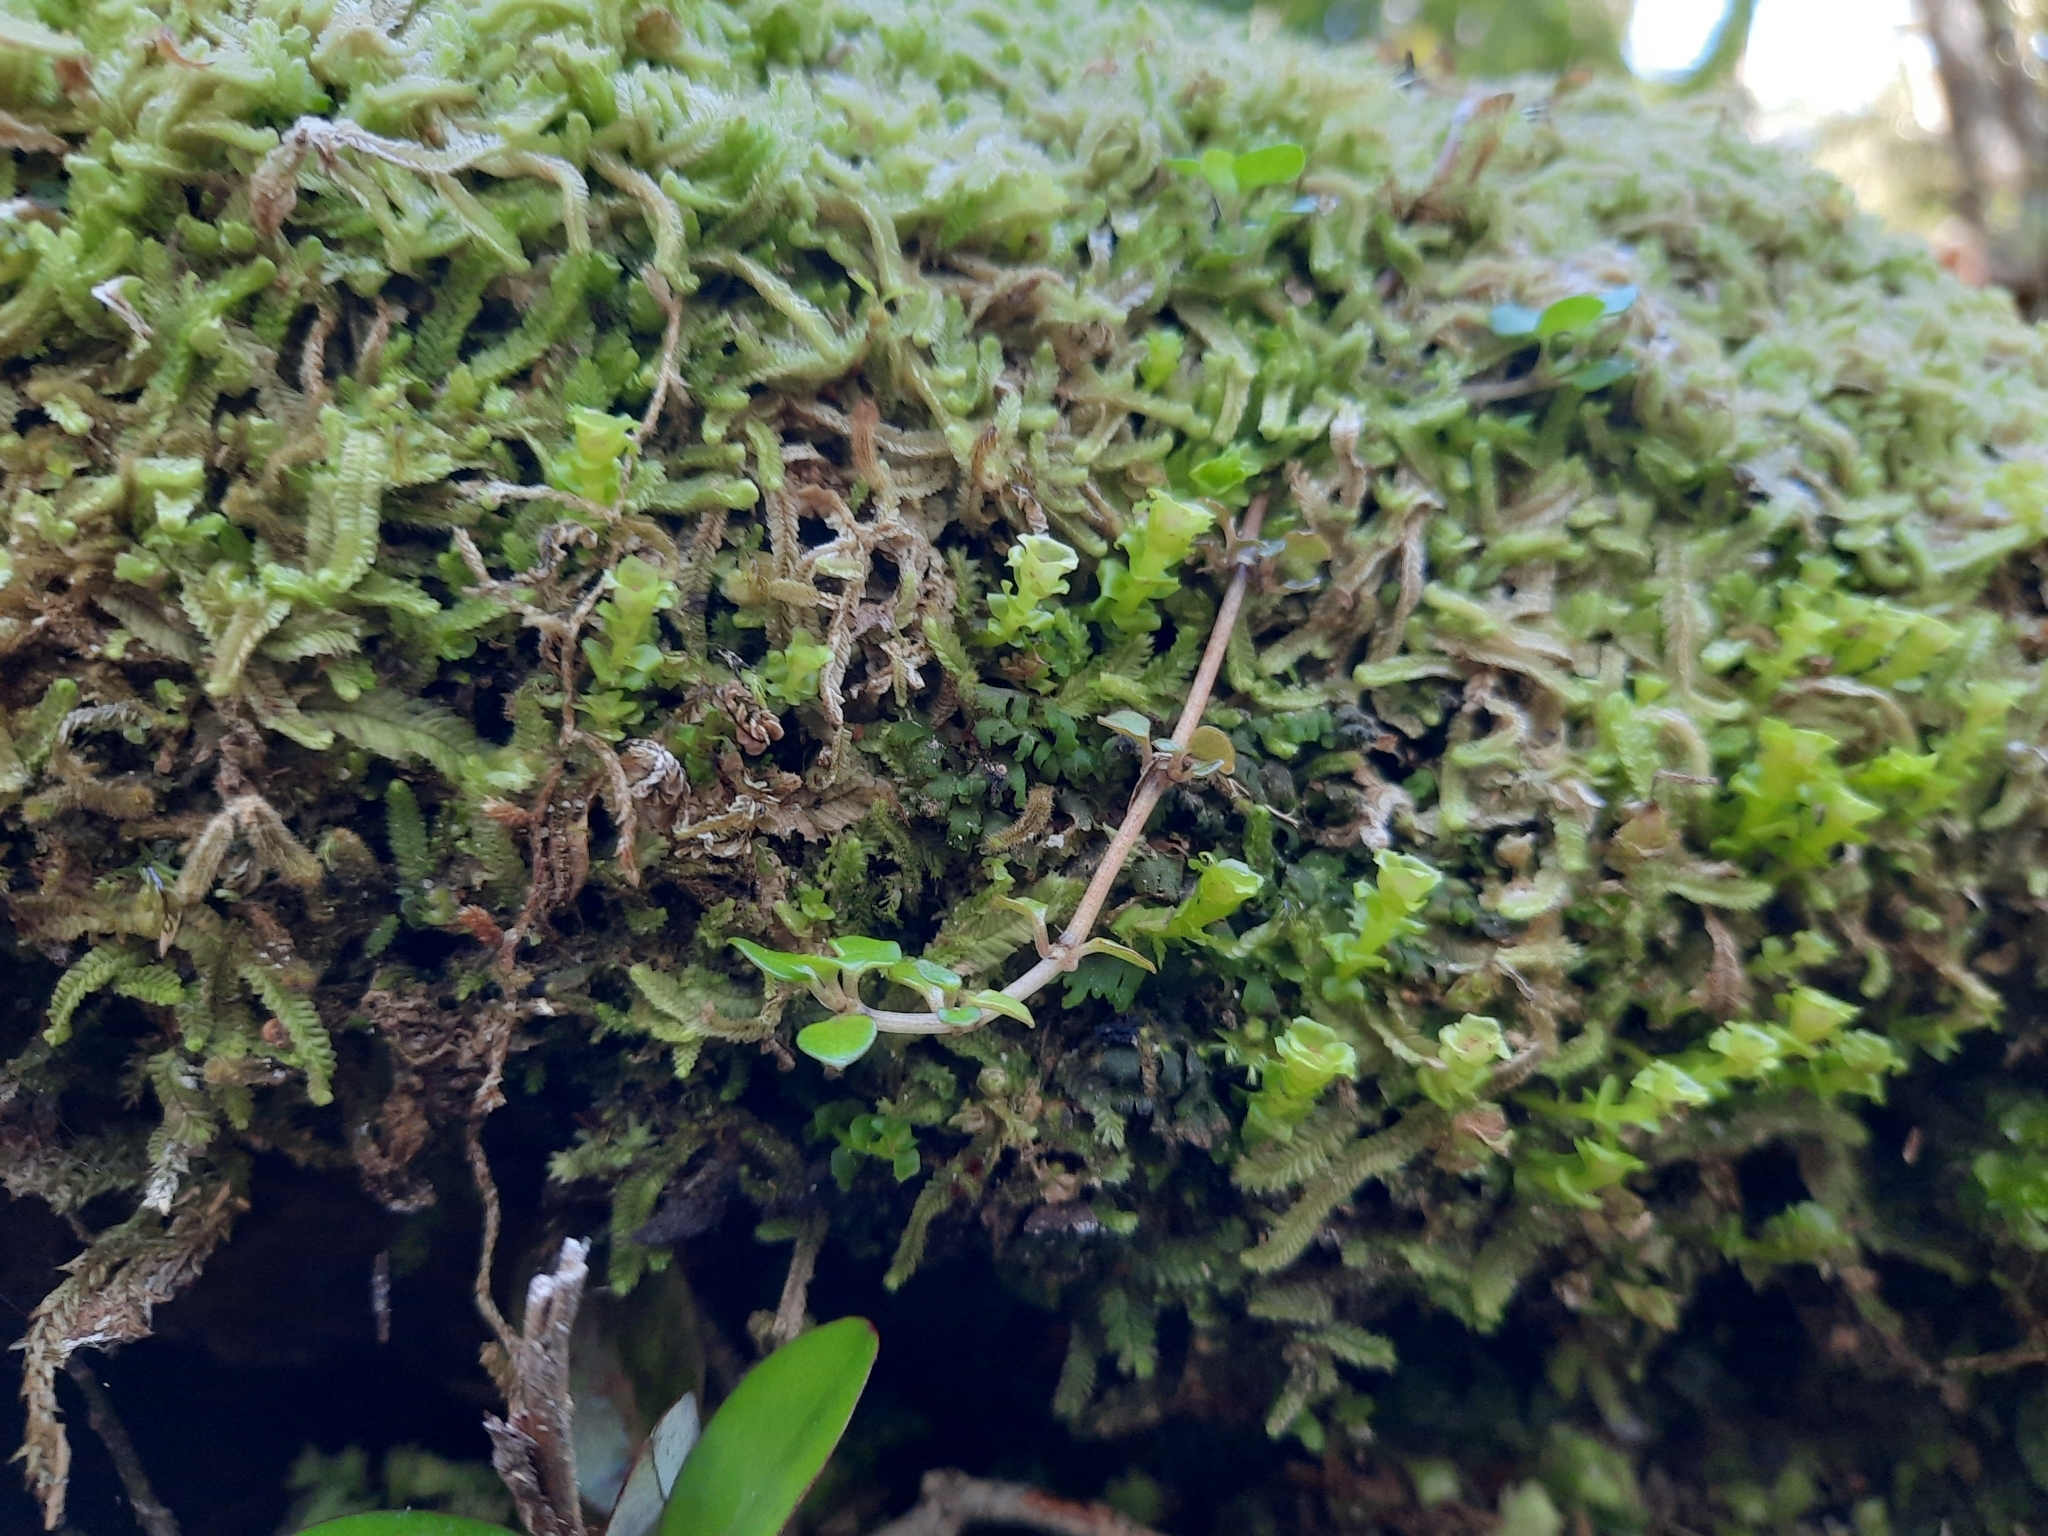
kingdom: Plantae
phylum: Marchantiophyta
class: Haplomitriopsida
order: Calobryales
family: Haplomitriaceae
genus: Haplomitrium
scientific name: Haplomitrium gibbsiae
